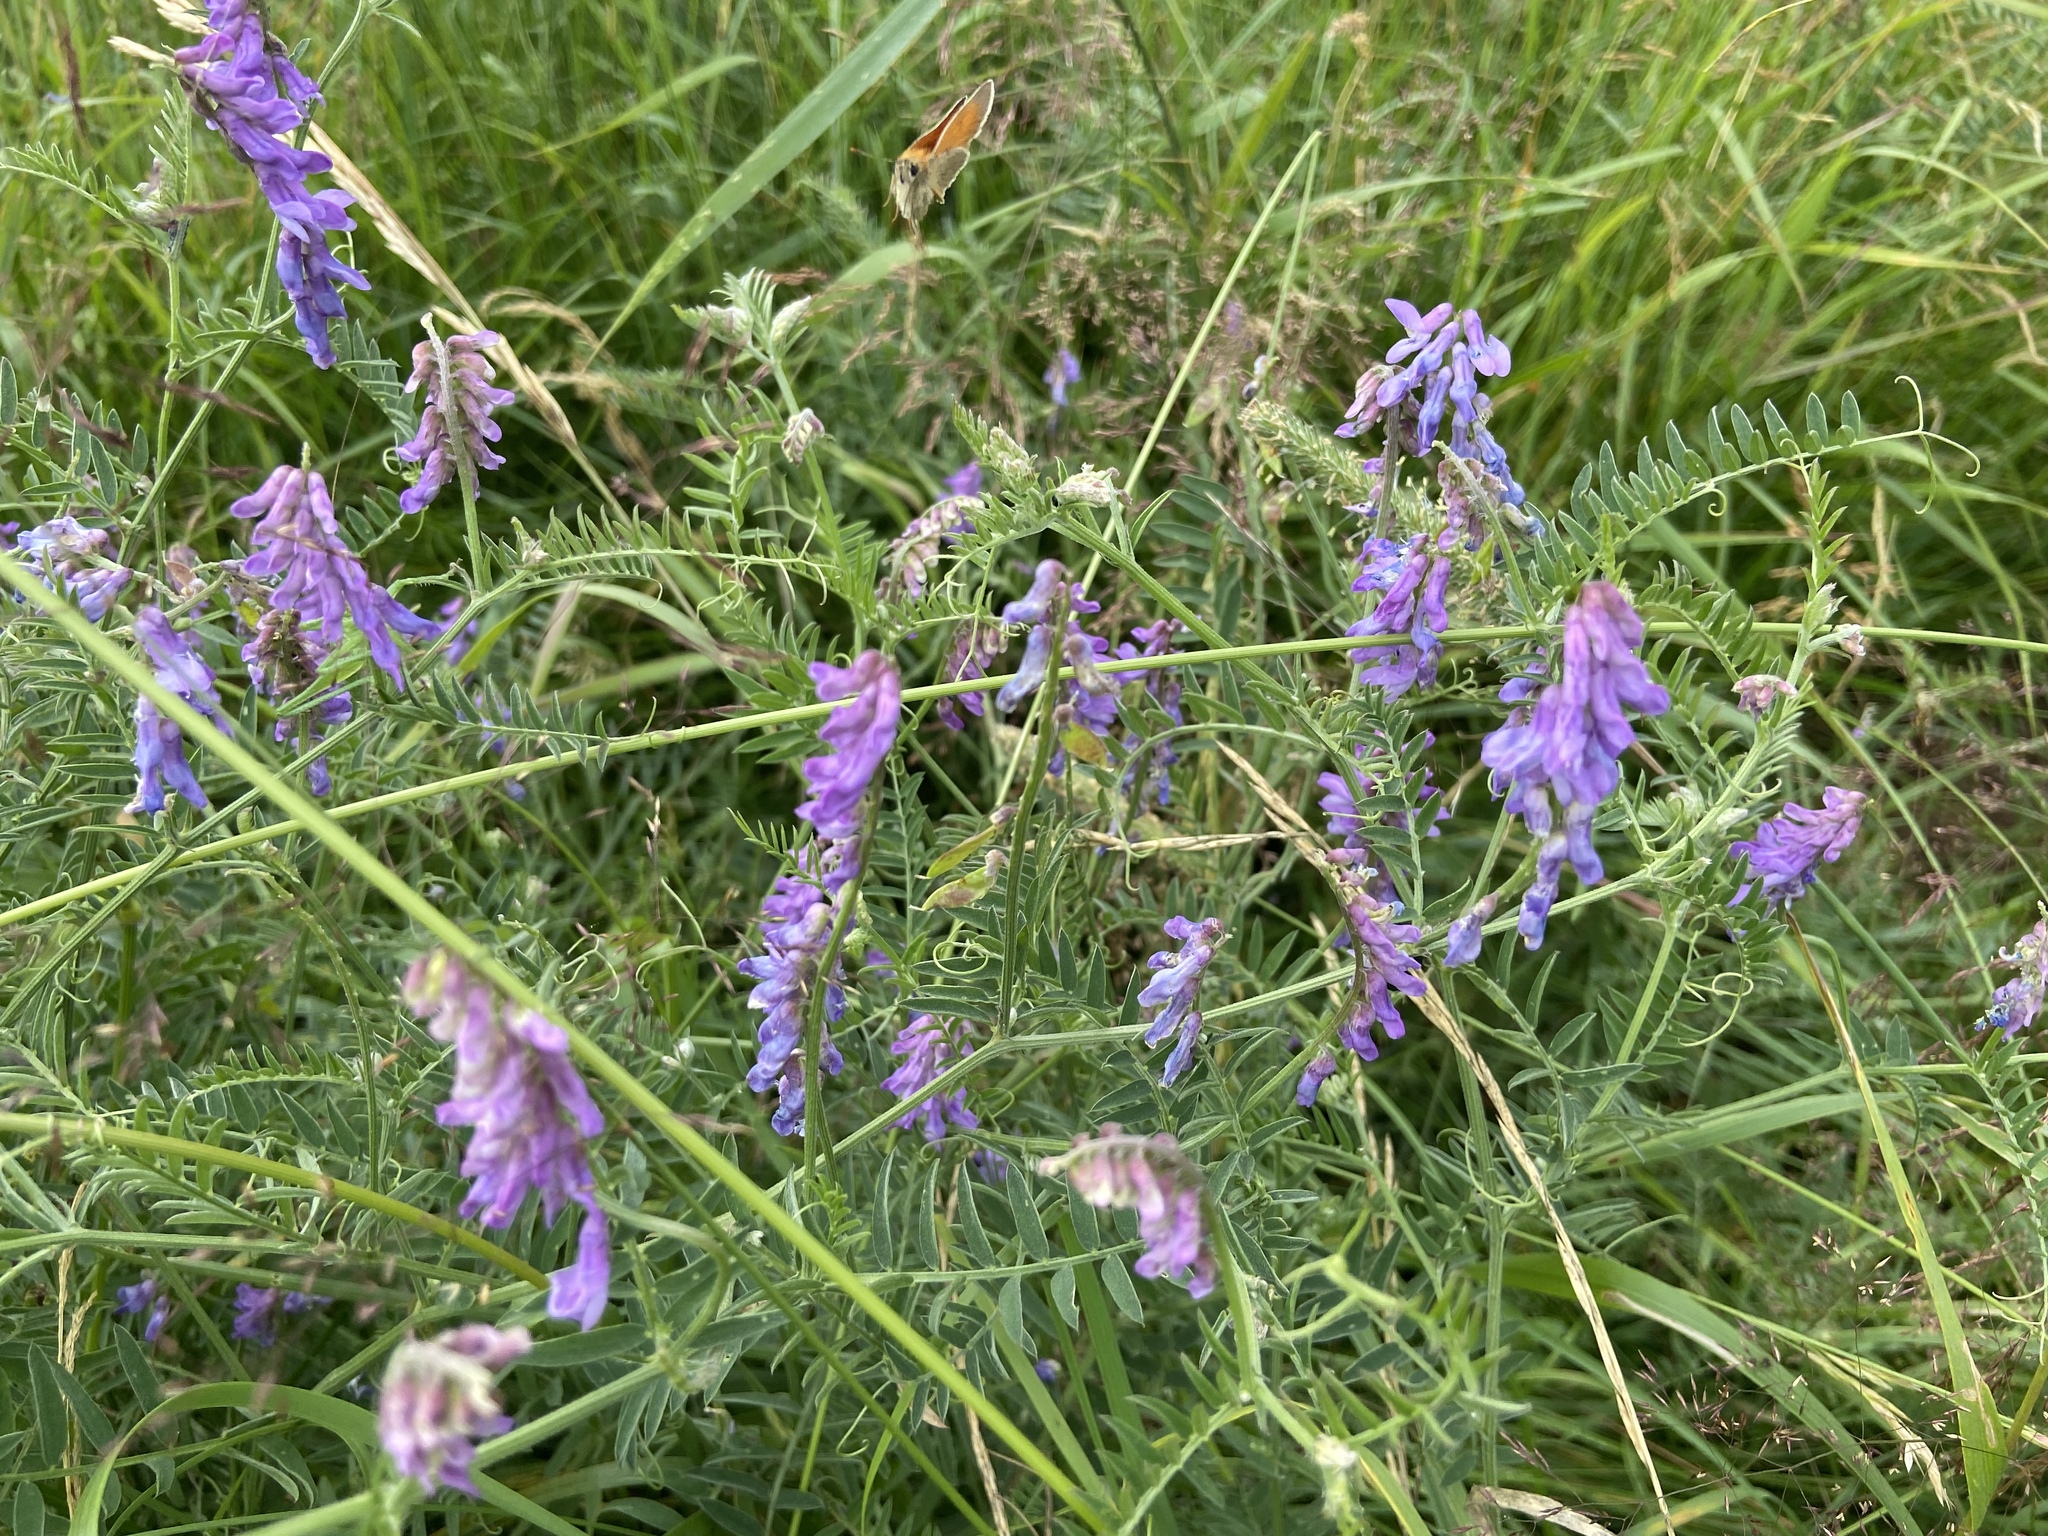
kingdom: Plantae
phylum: Tracheophyta
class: Magnoliopsida
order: Fabales
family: Fabaceae
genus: Vicia
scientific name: Vicia cracca
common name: Bird vetch
